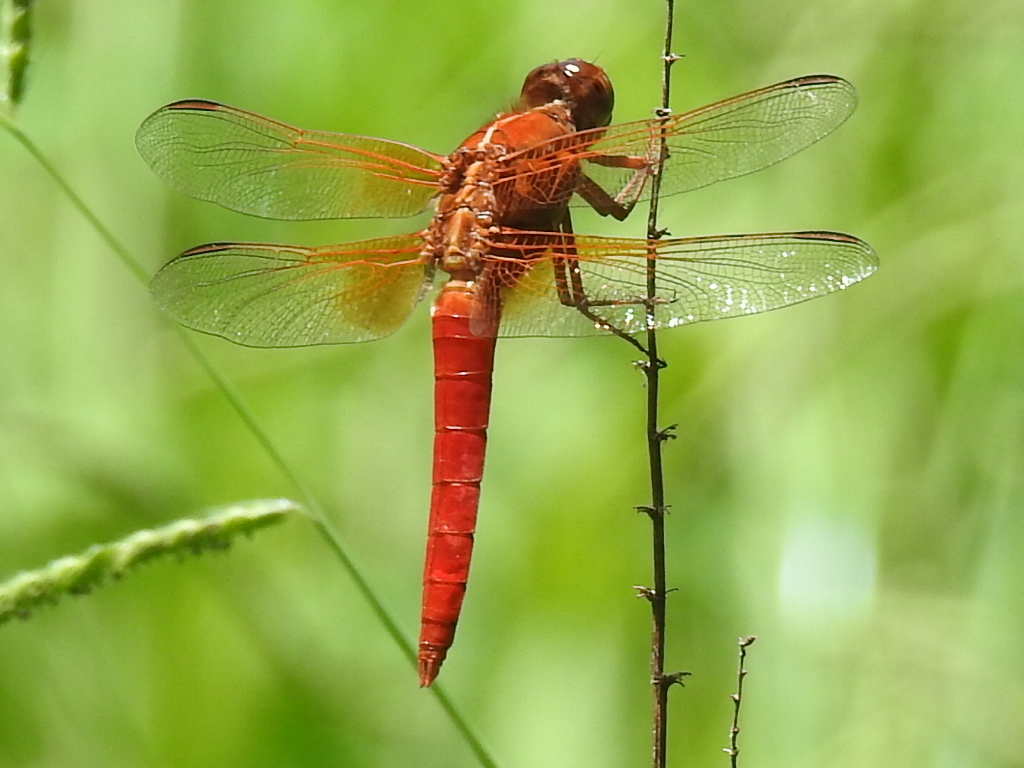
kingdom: Animalia
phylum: Arthropoda
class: Insecta
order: Odonata
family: Libellulidae
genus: Libellula
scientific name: Libellula croceipennis
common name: Neon skimmer
